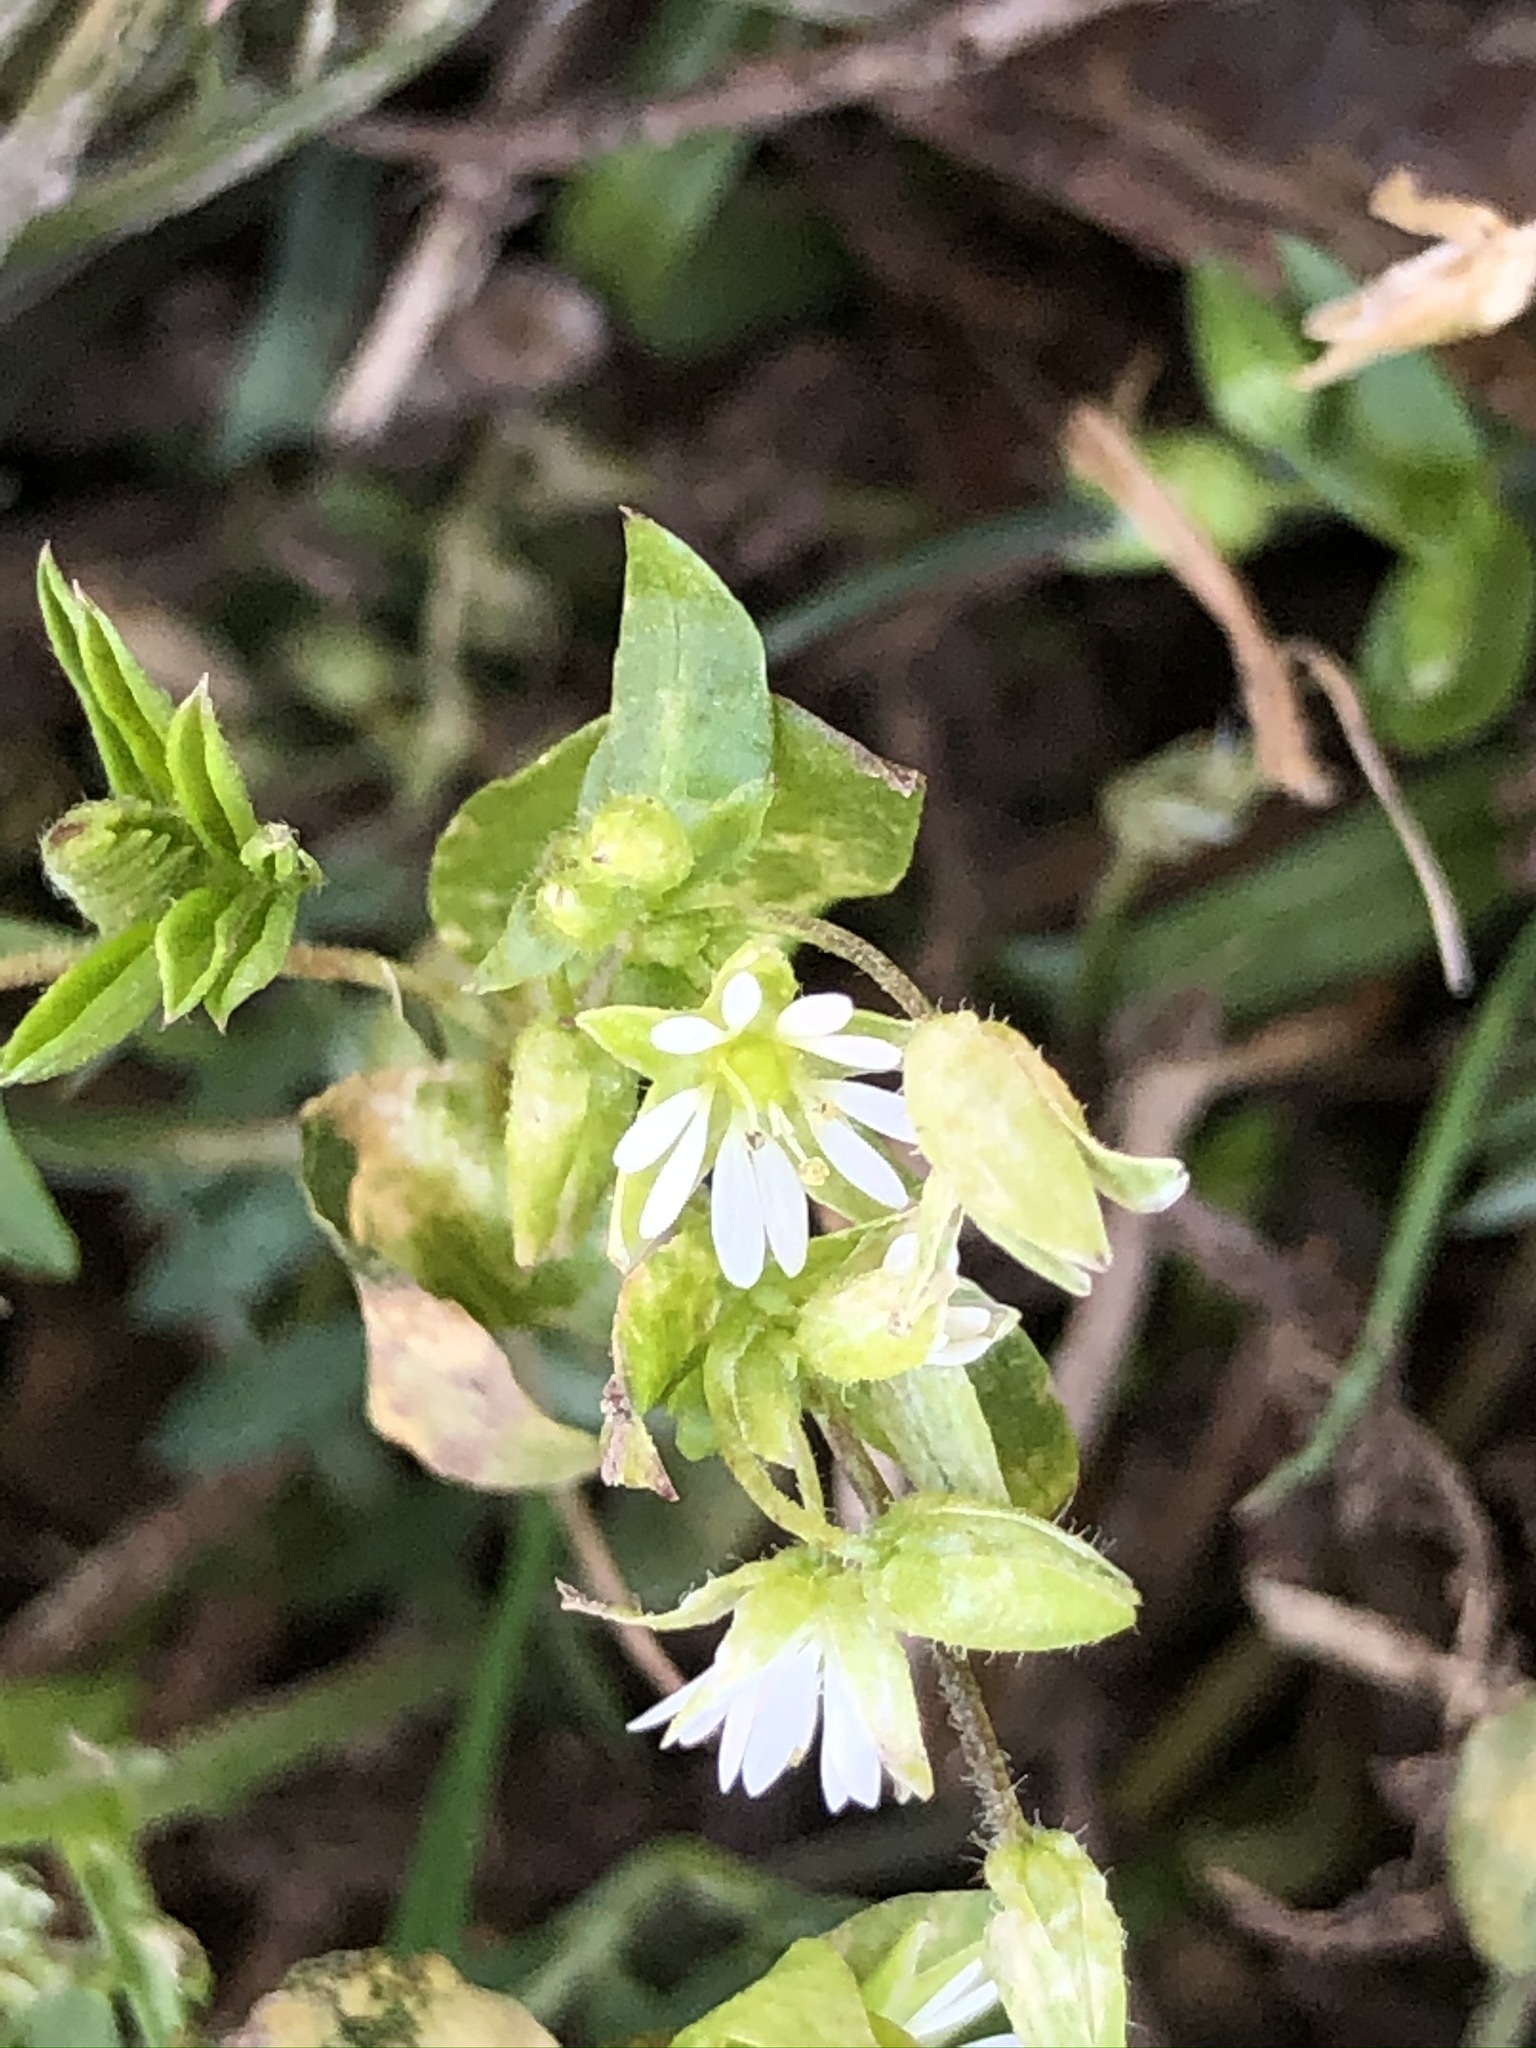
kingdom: Plantae
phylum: Tracheophyta
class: Magnoliopsida
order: Caryophyllales
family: Caryophyllaceae
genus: Stellaria
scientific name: Stellaria media
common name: Common chickweed
